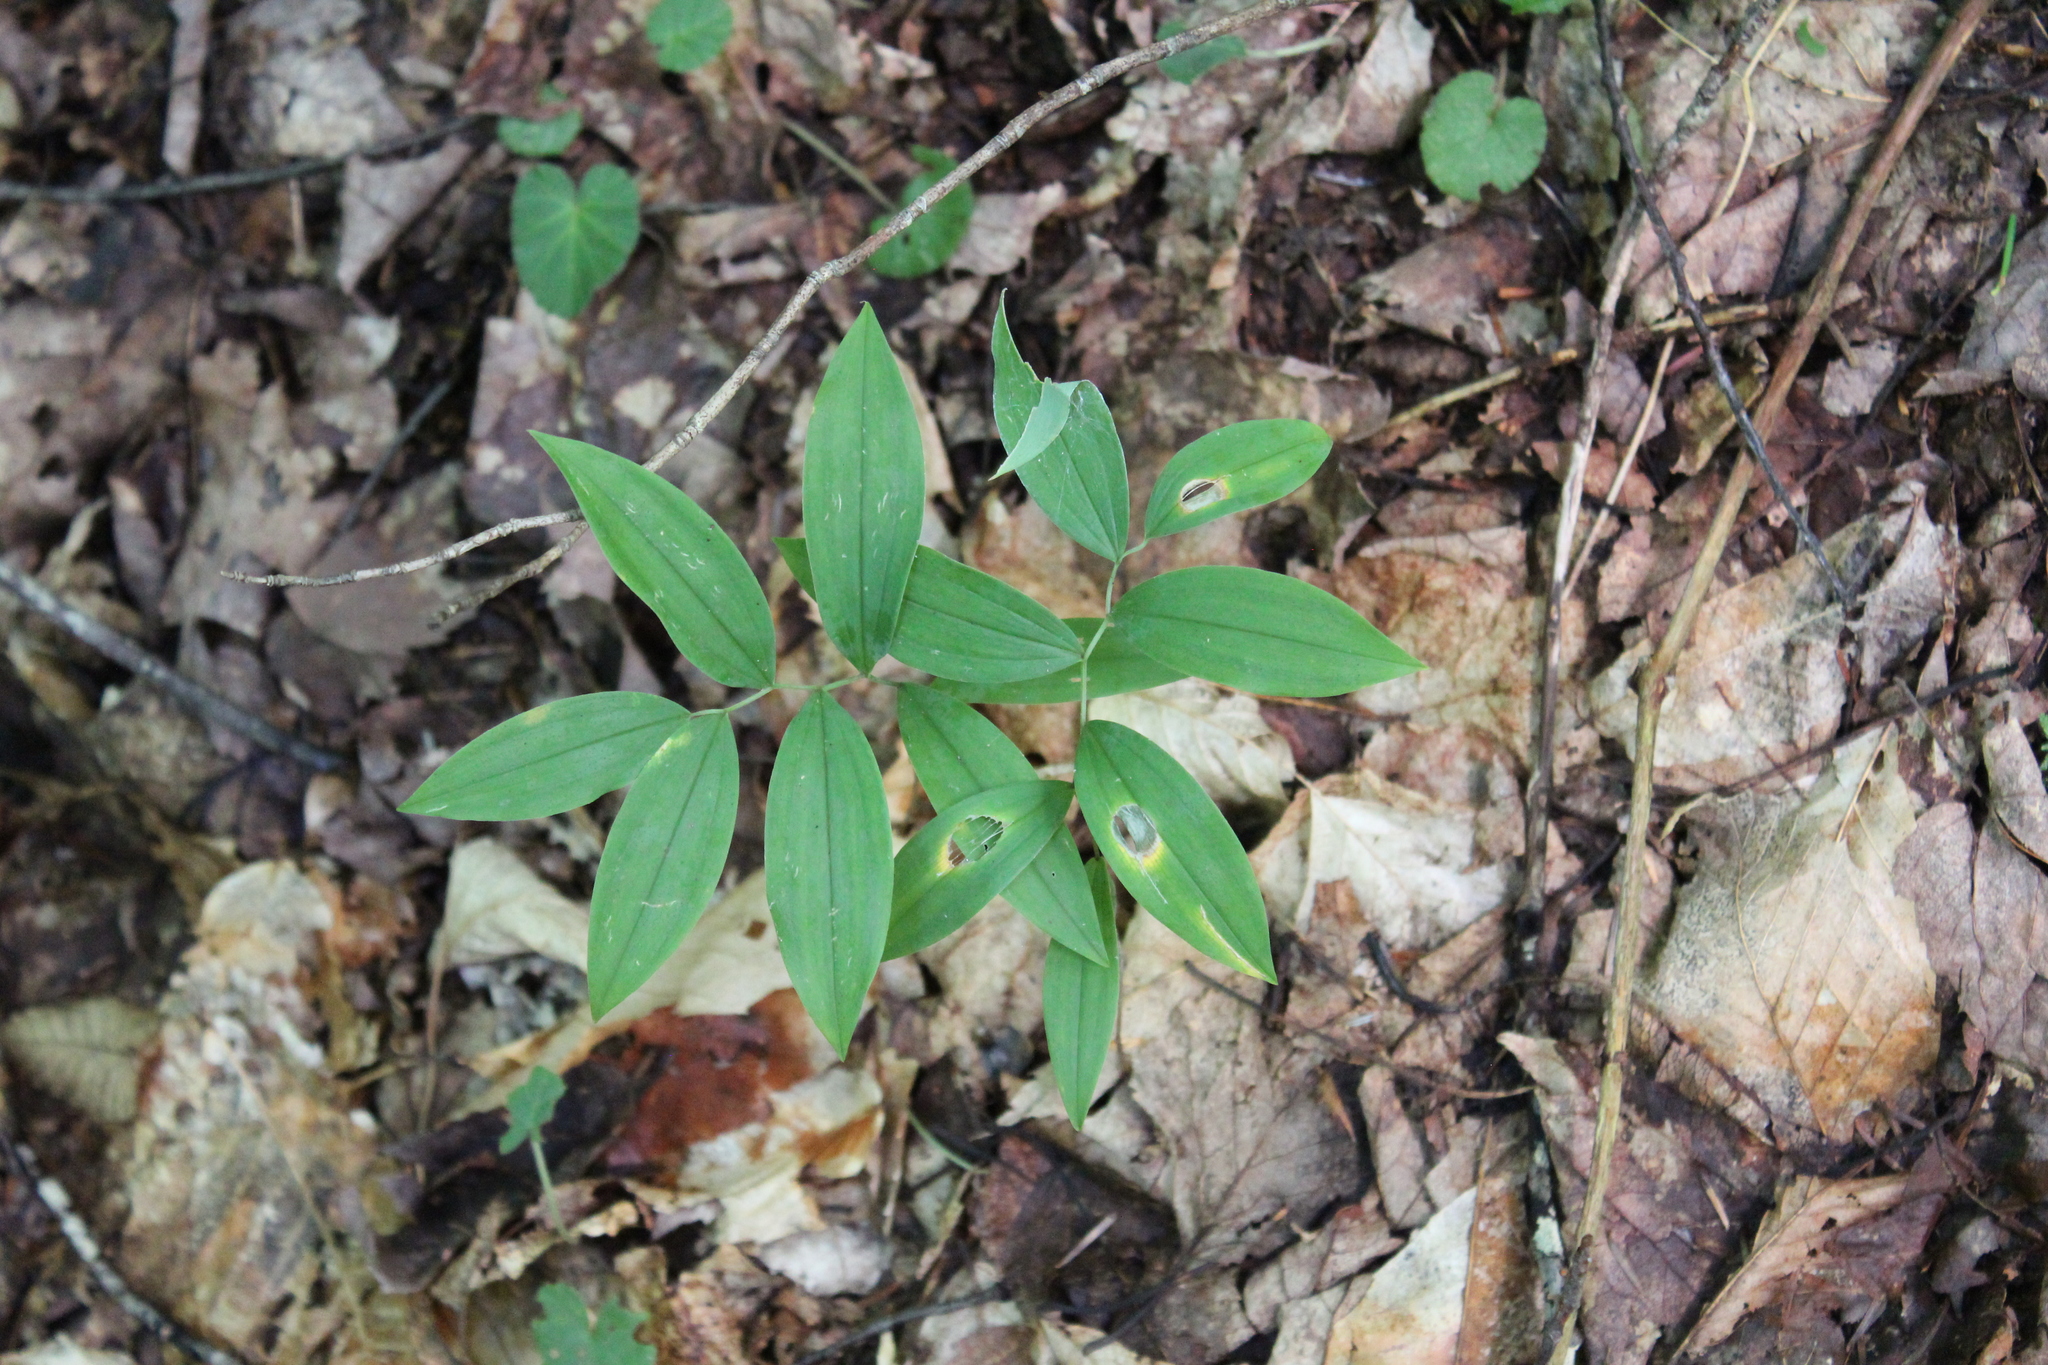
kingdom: Plantae
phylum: Tracheophyta
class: Liliopsida
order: Liliales
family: Colchicaceae
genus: Uvularia
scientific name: Uvularia sessilifolia
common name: Straw-lily
